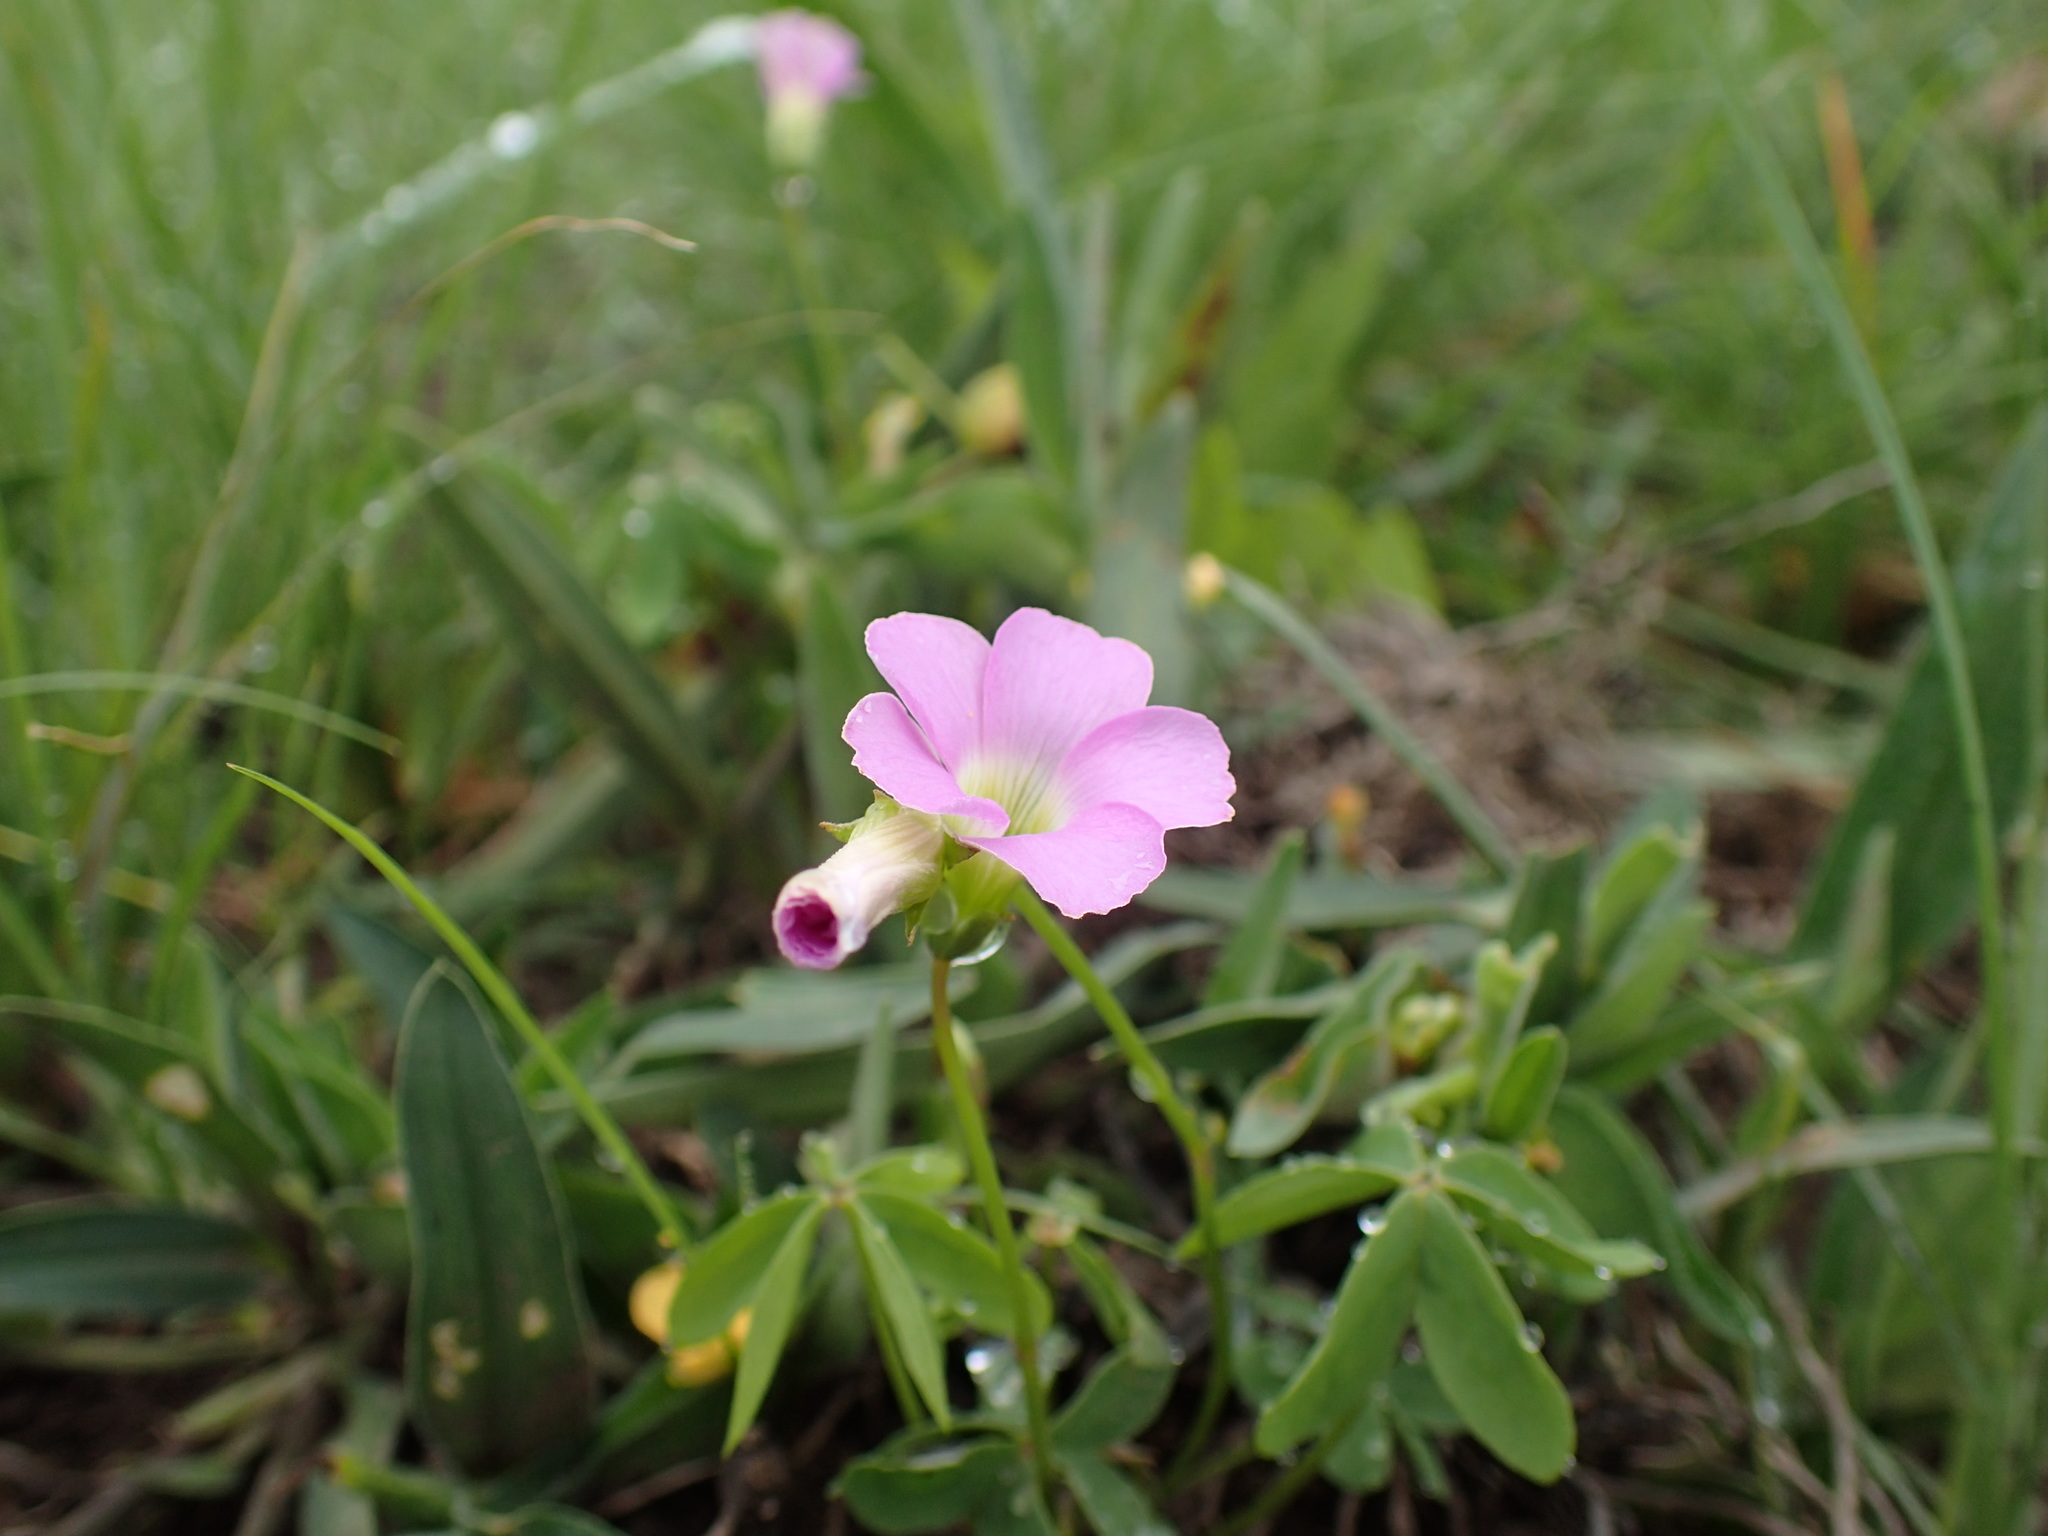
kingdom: Plantae
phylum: Tracheophyta
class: Magnoliopsida
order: Oxalidales
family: Oxalidaceae
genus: Oxalis
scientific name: Oxalis smithiana
